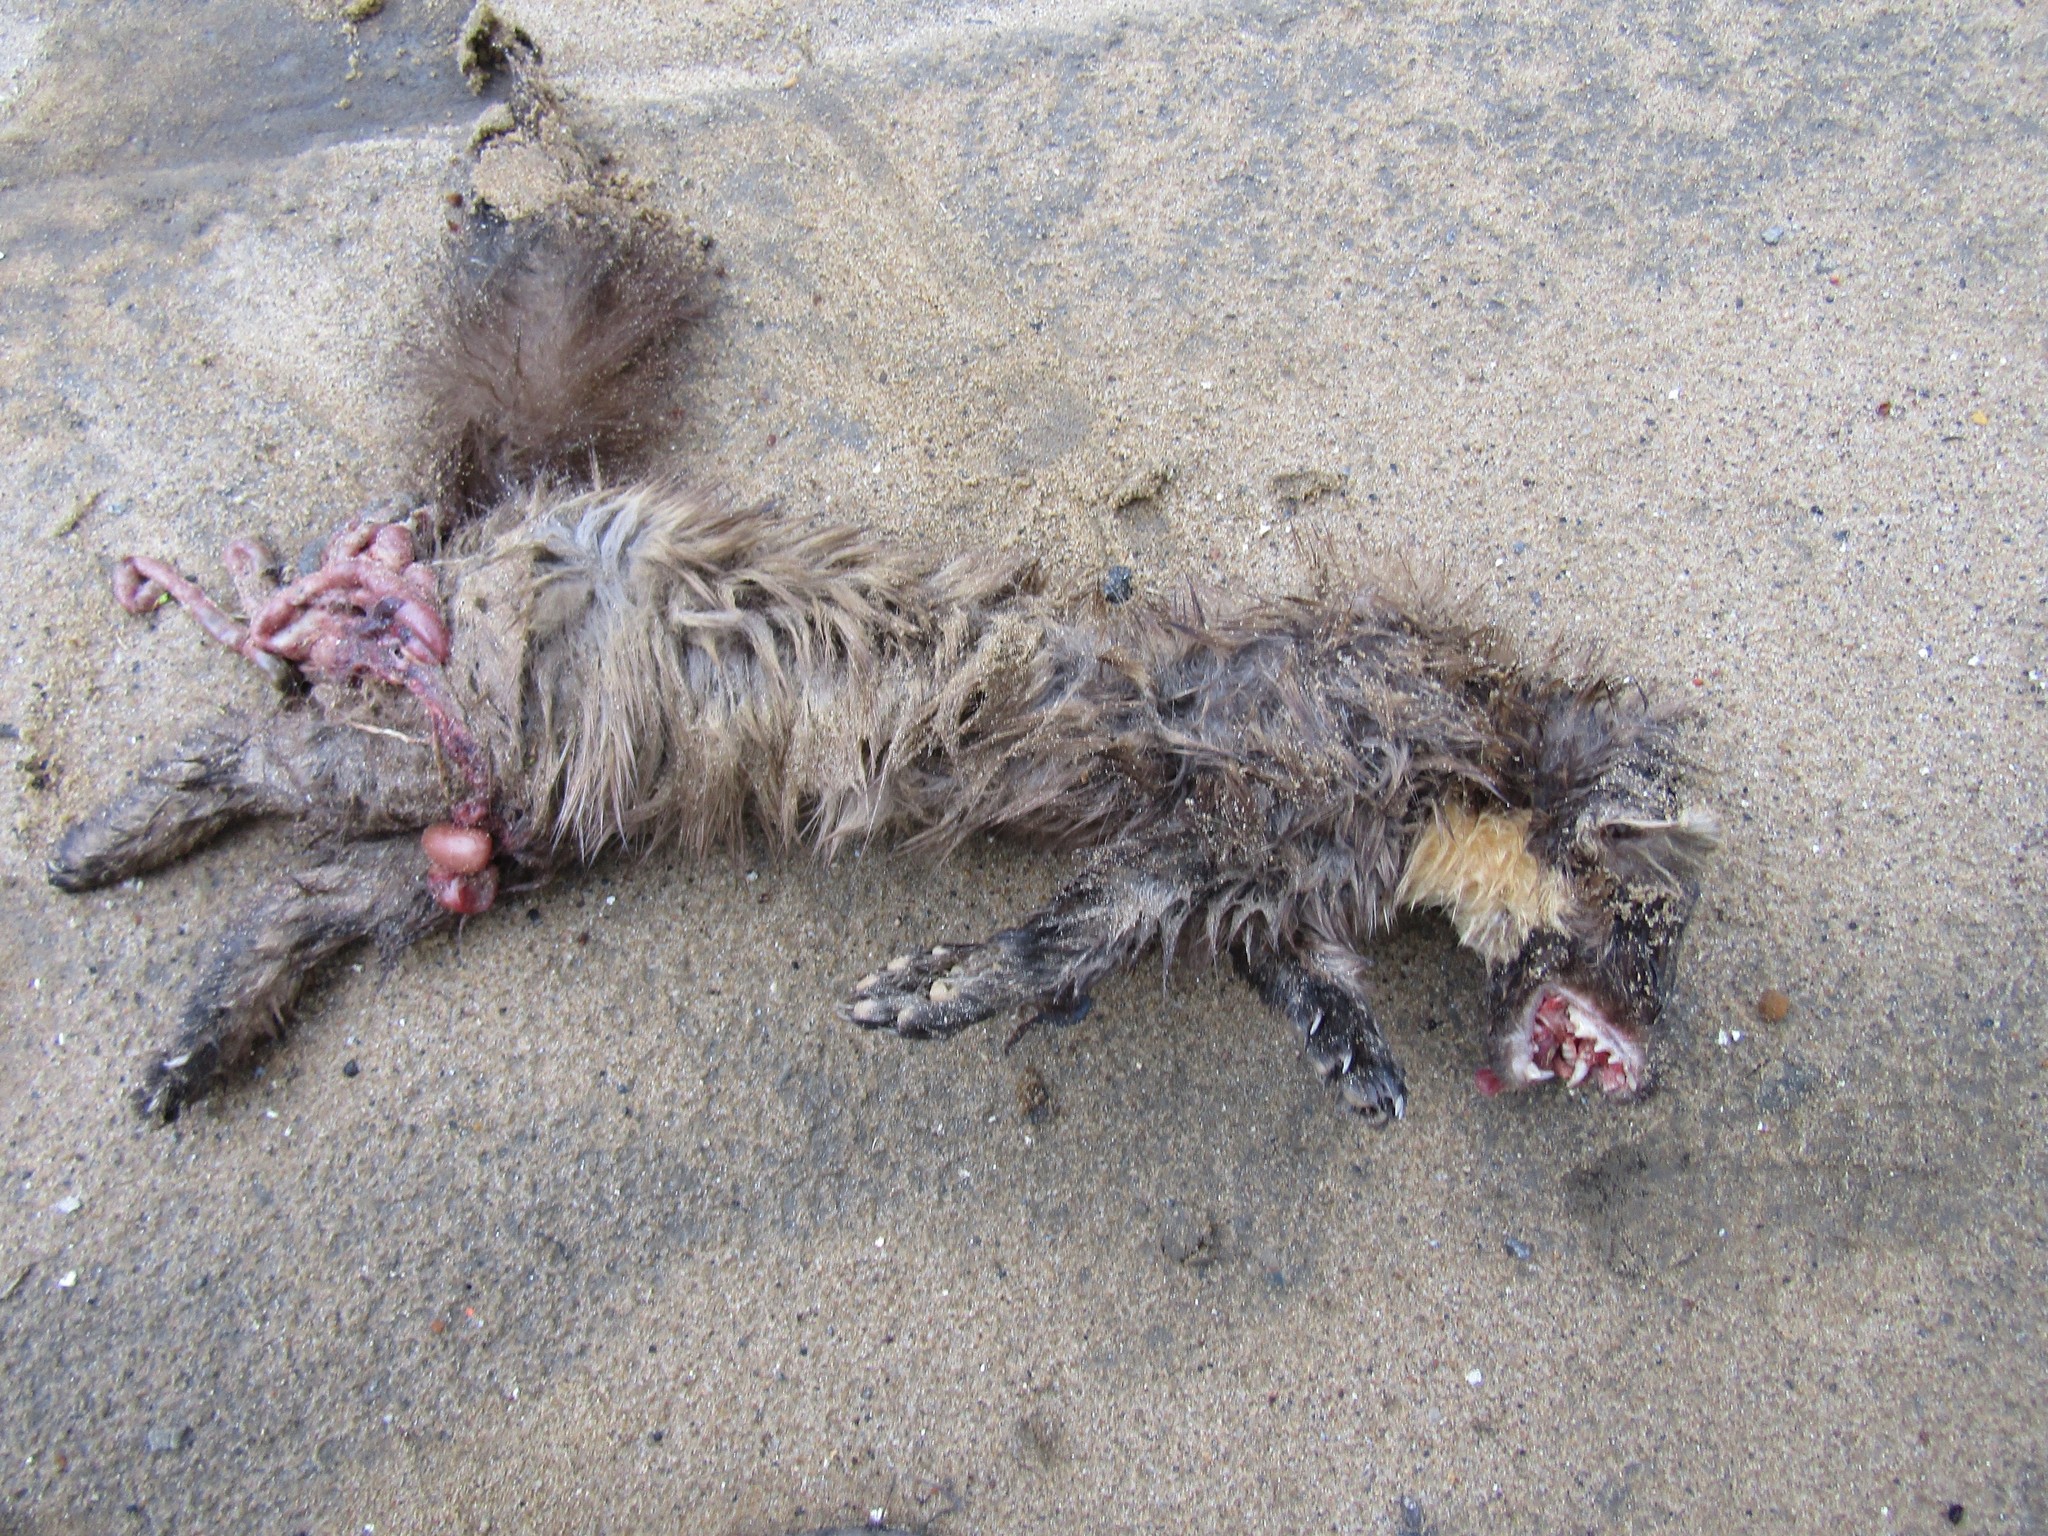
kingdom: Animalia
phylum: Chordata
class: Mammalia
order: Carnivora
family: Mustelidae
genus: Martes
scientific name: Martes martes
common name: European pine marten
